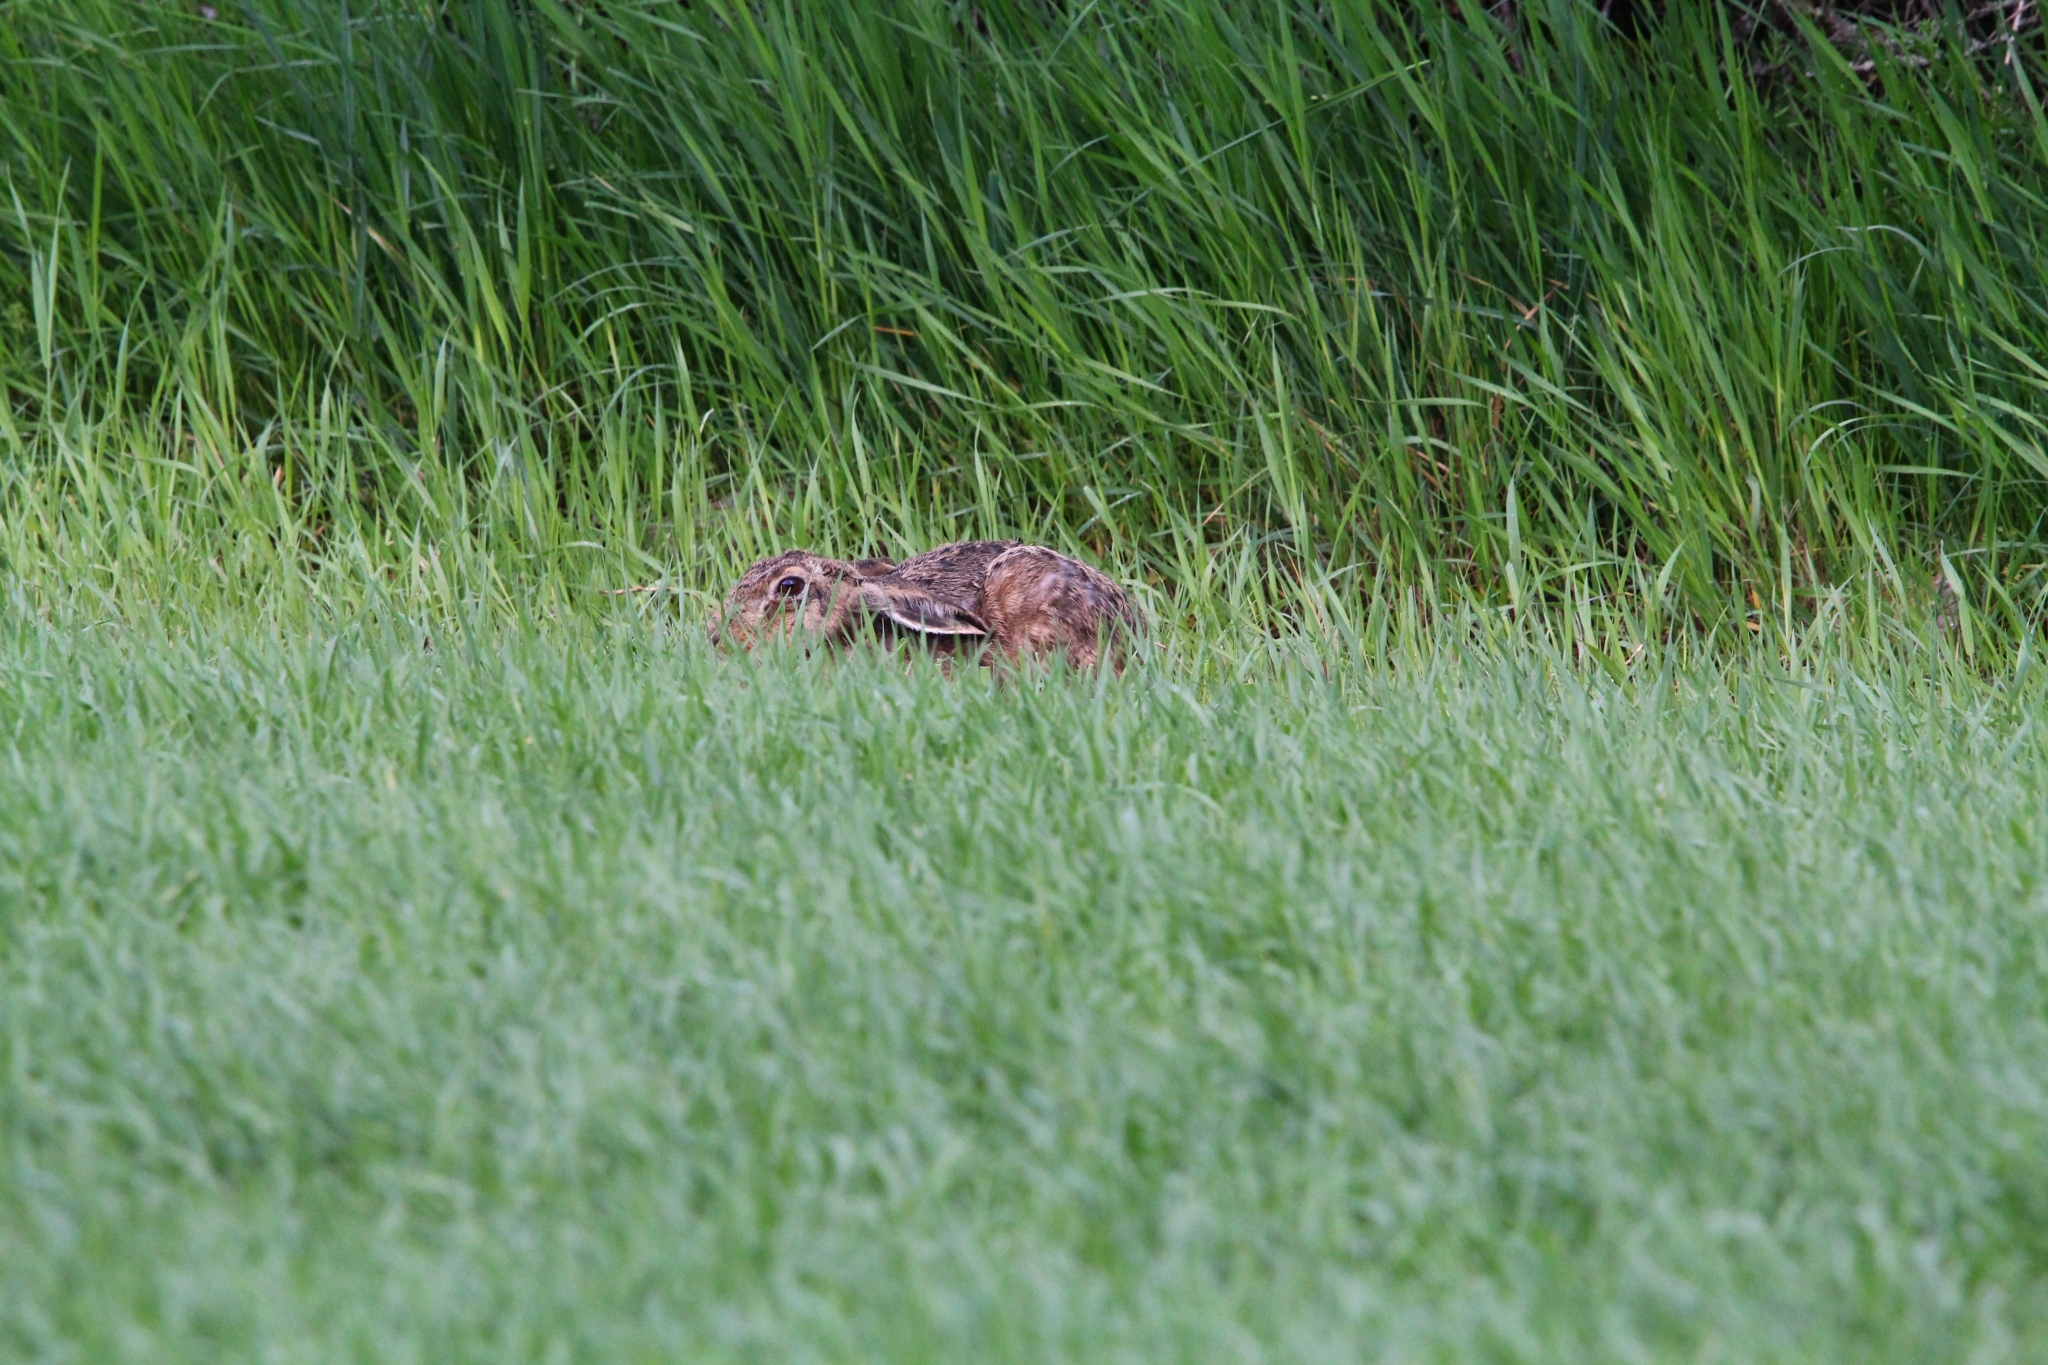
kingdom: Animalia
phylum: Chordata
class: Mammalia
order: Lagomorpha
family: Leporidae
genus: Lepus
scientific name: Lepus europaeus
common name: European hare
